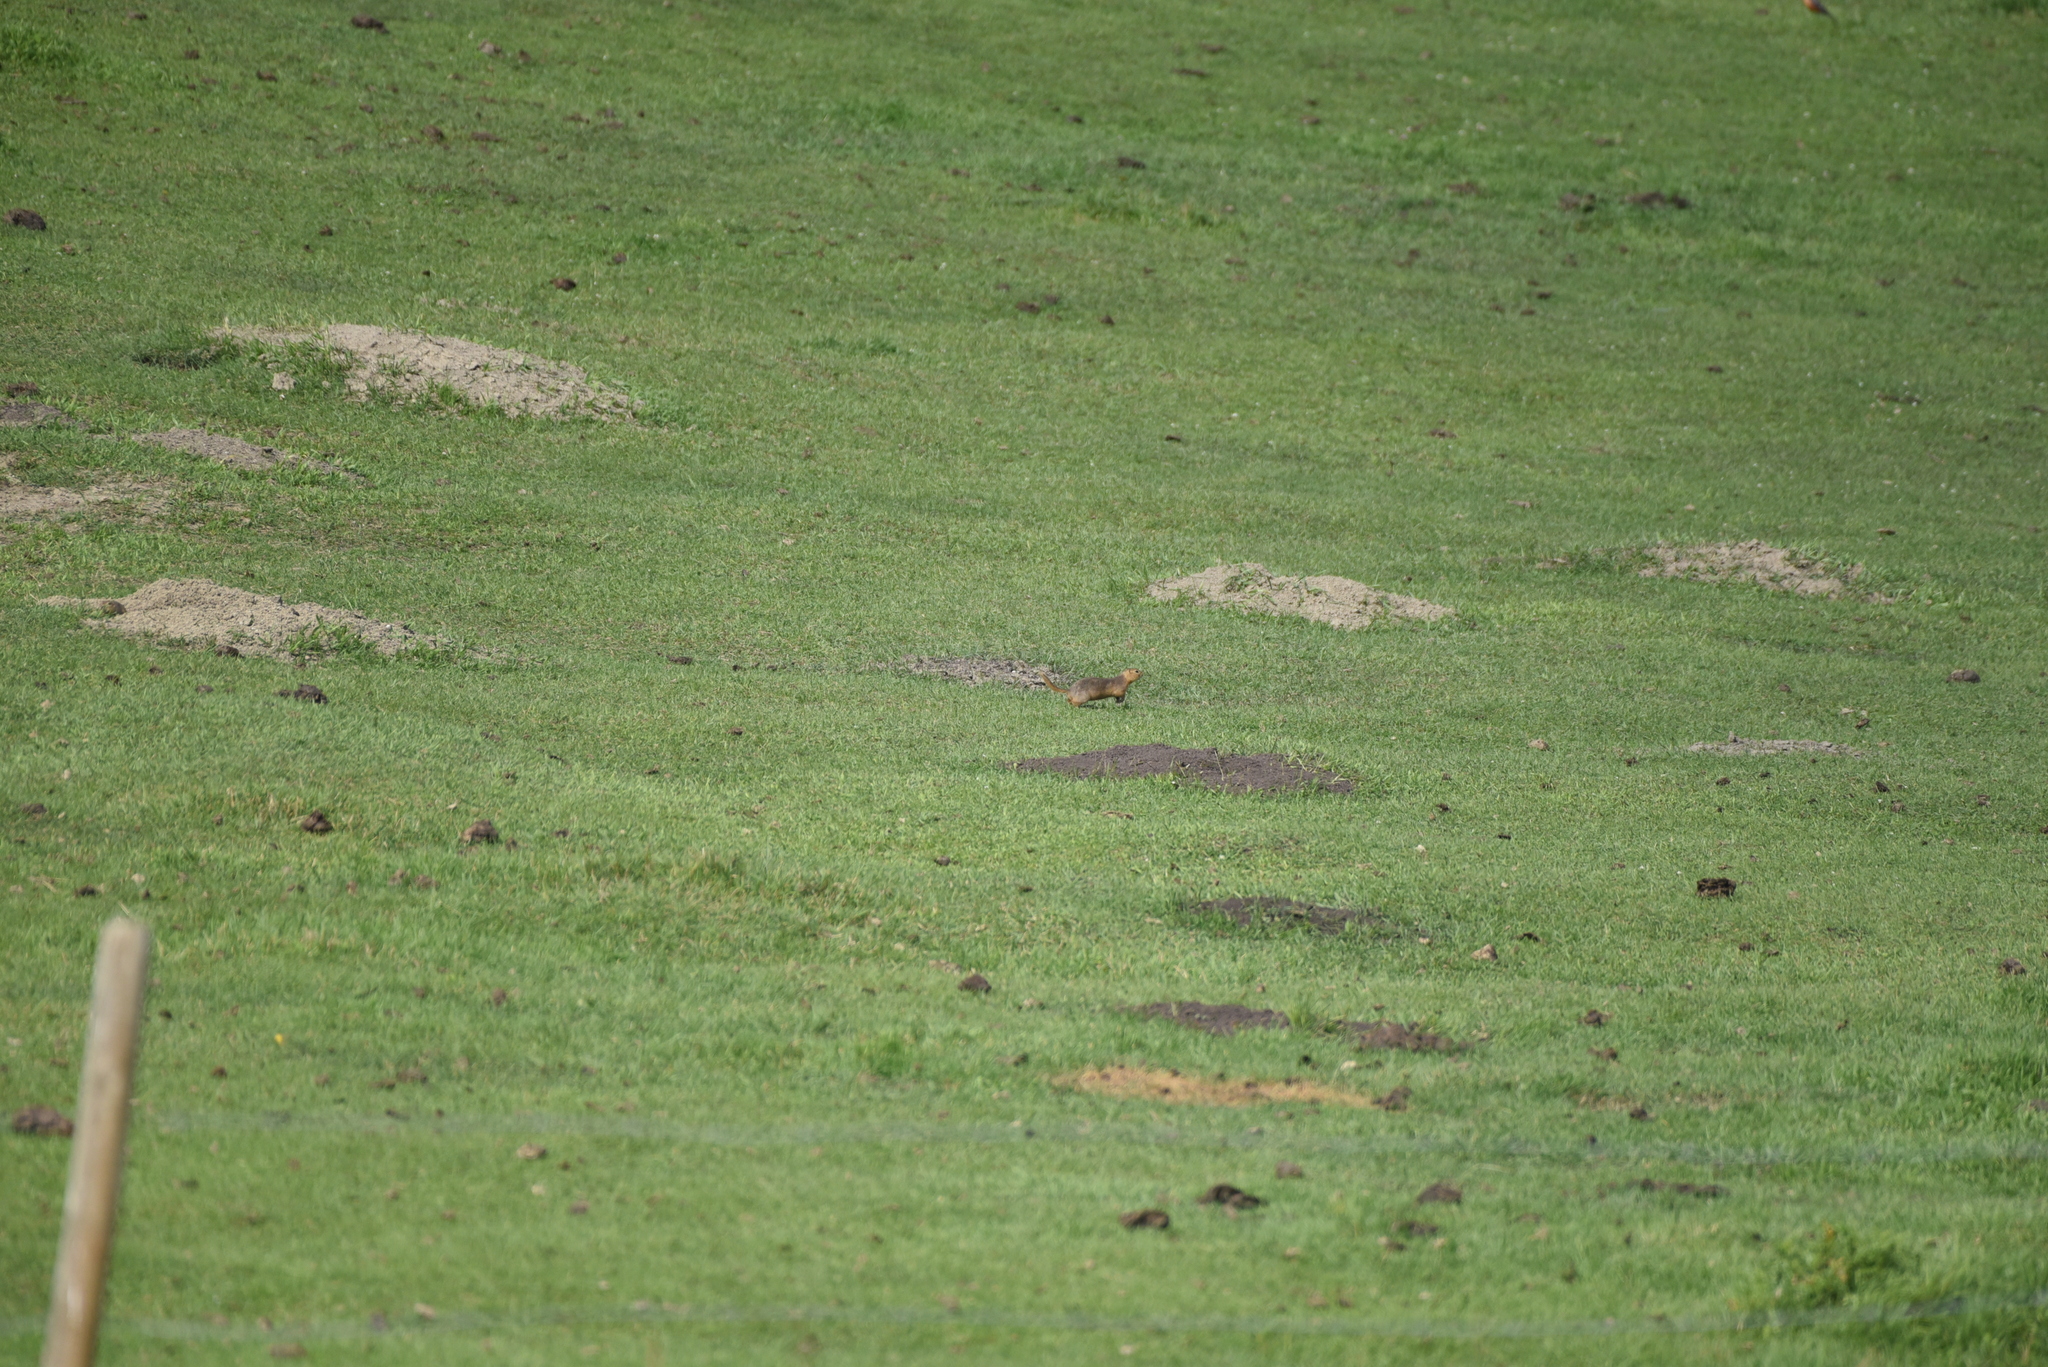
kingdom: Animalia
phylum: Chordata
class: Mammalia
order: Rodentia
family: Sciuridae
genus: Urocitellus
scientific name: Urocitellus richardsonii
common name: Richardson's ground squirrel
